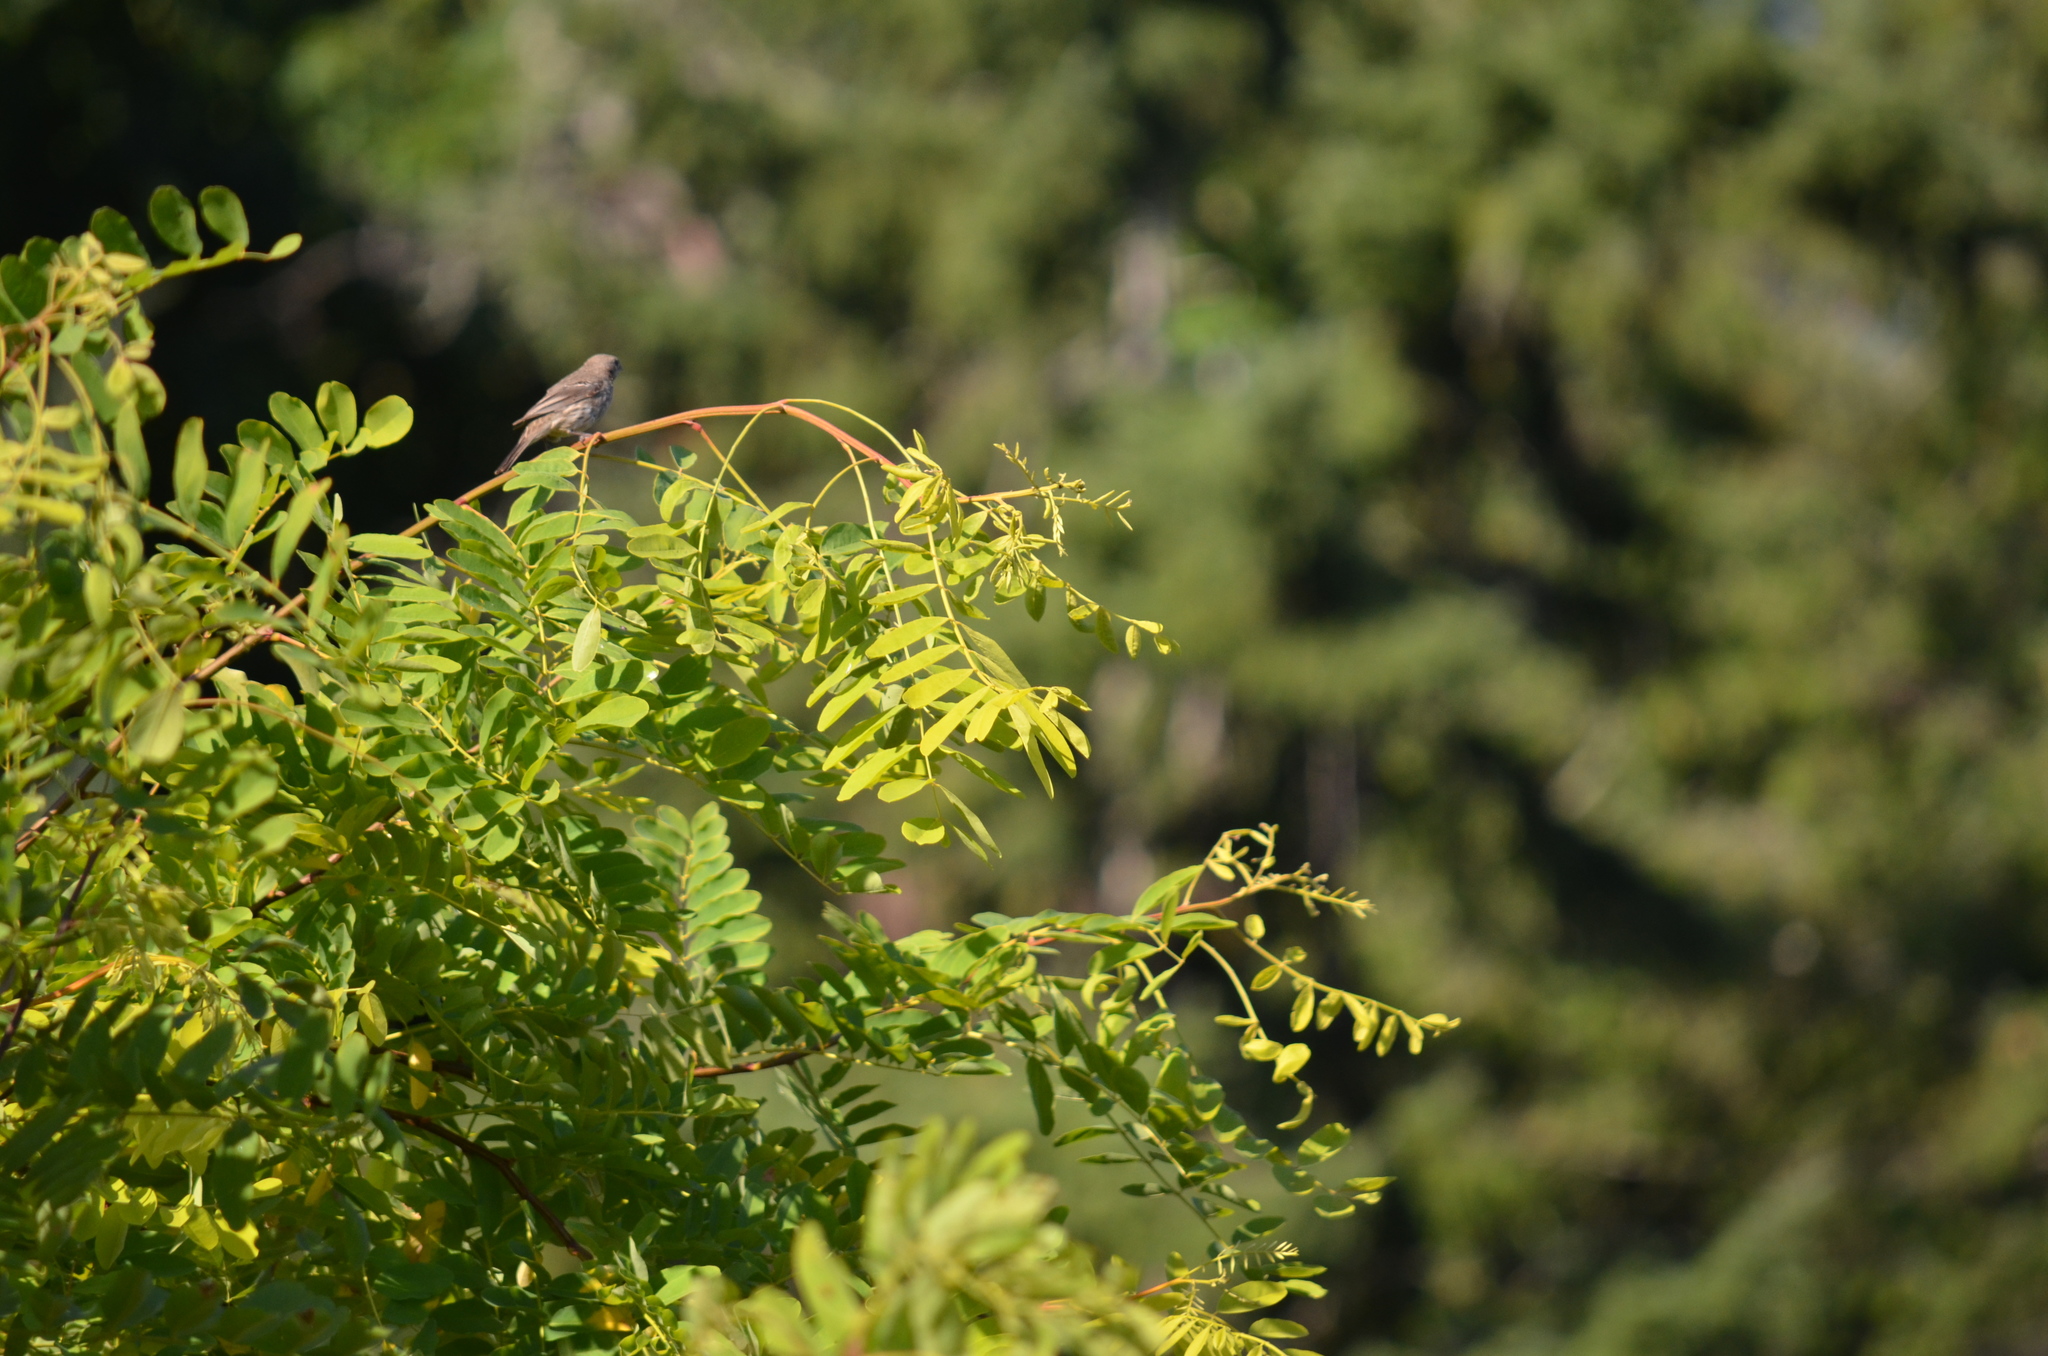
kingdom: Animalia
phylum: Chordata
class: Aves
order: Passeriformes
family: Fringillidae
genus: Haemorhous
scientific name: Haemorhous mexicanus
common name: House finch
